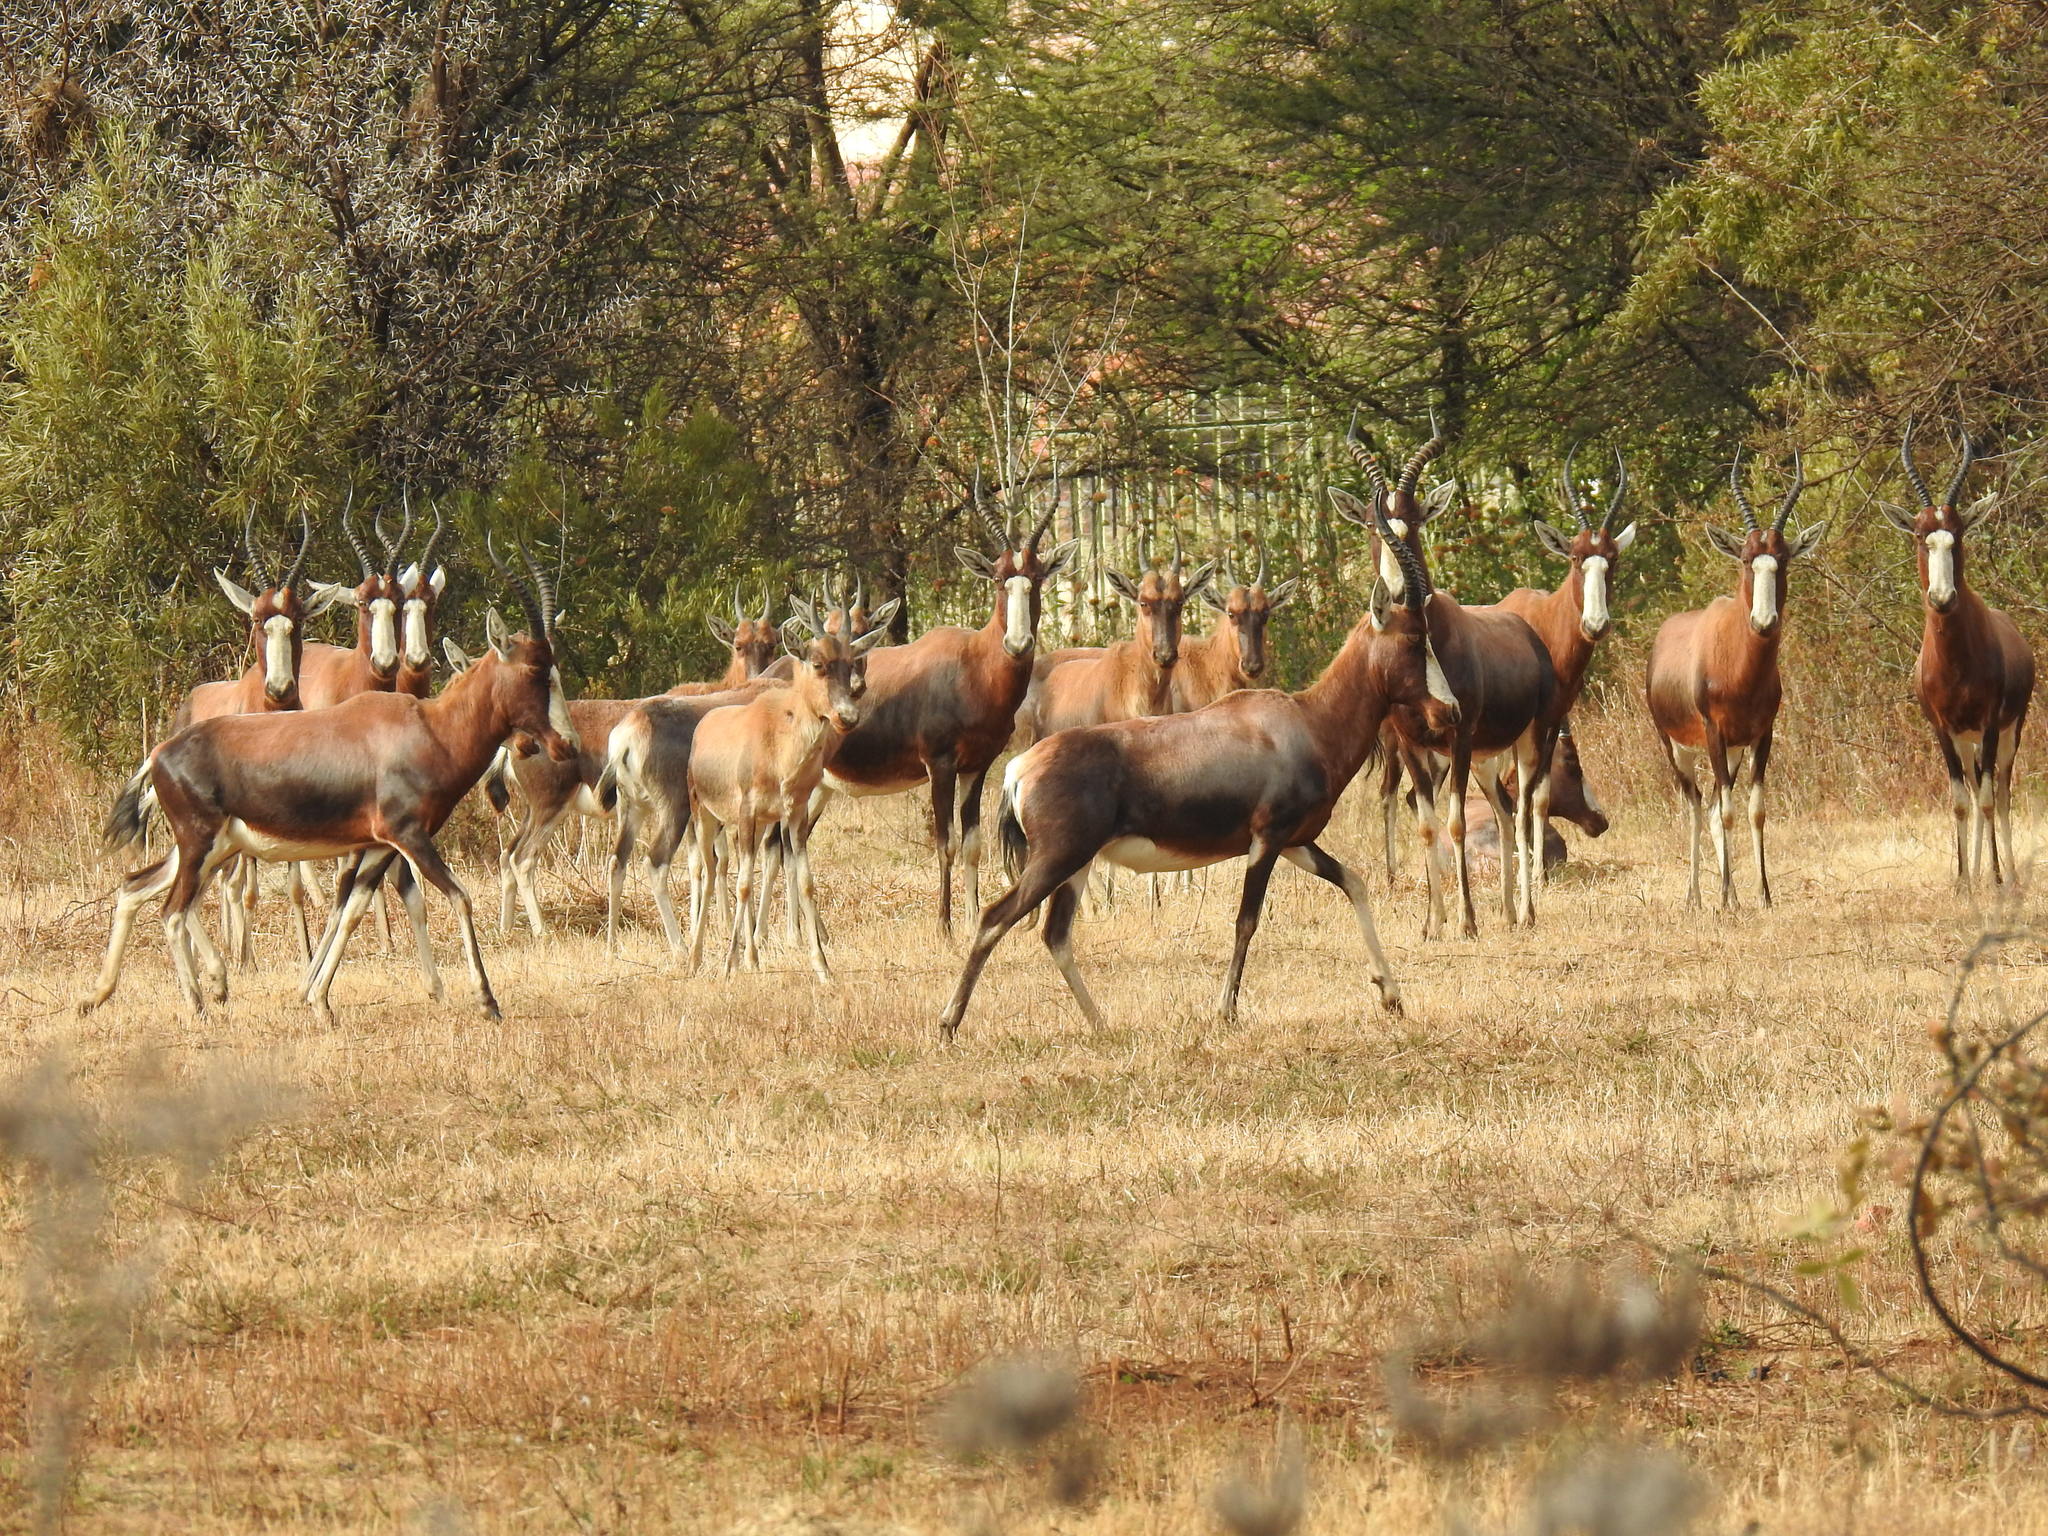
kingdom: Animalia
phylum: Chordata
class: Mammalia
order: Artiodactyla
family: Bovidae
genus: Damaliscus
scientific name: Damaliscus pygargus
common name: Bontebok
